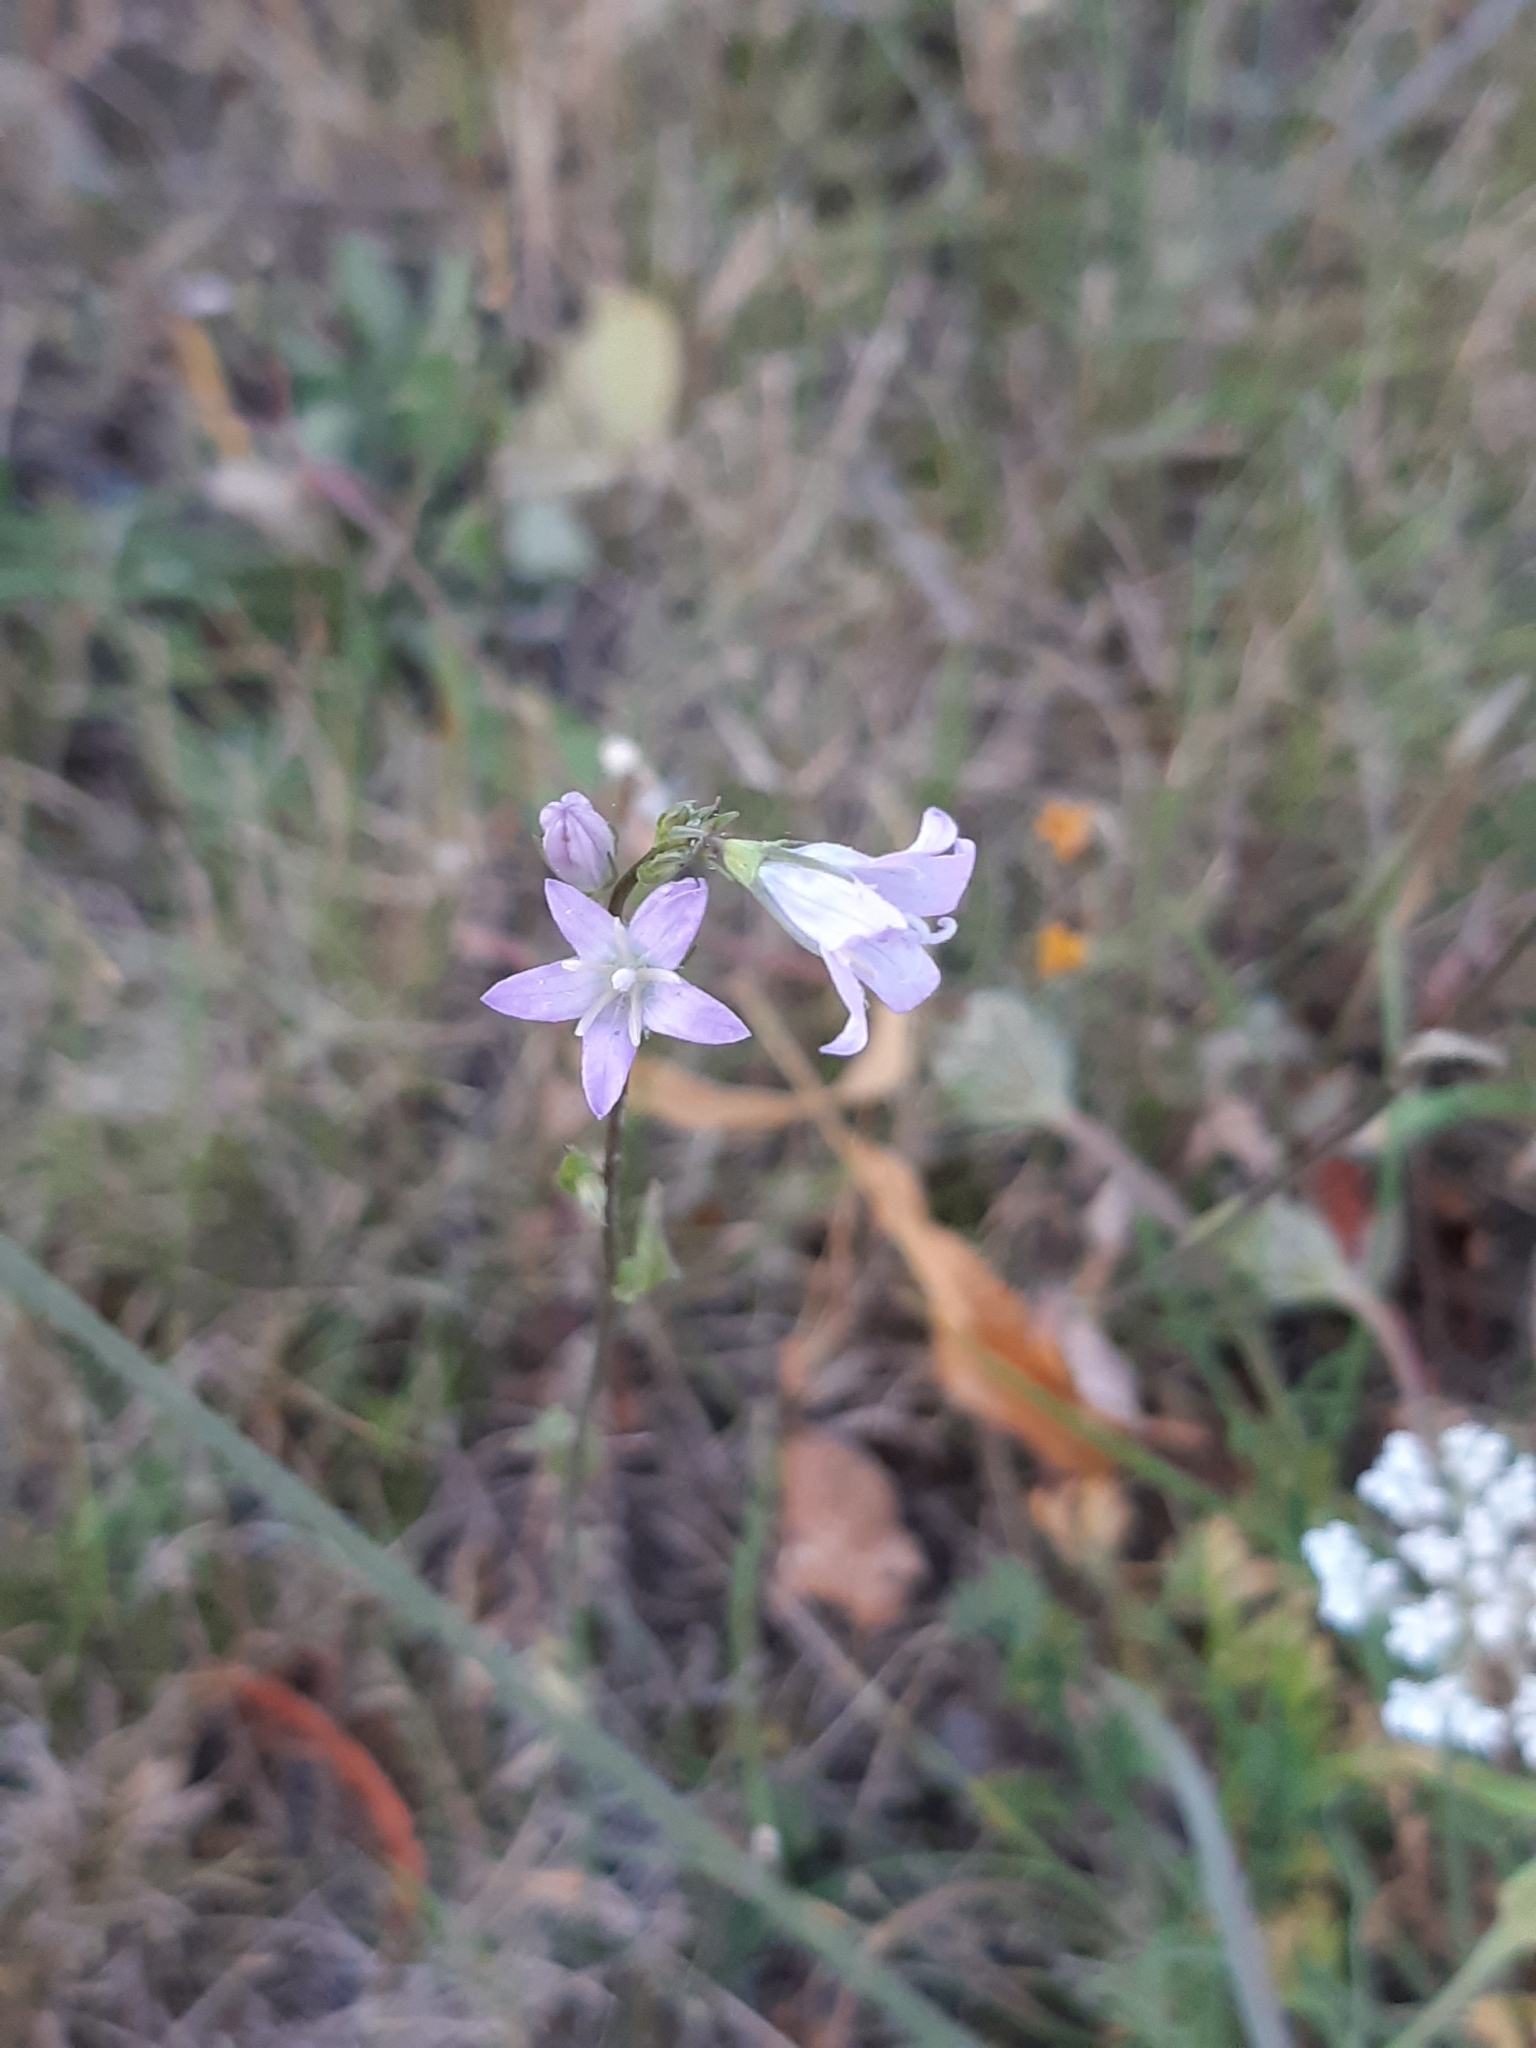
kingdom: Plantae
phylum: Tracheophyta
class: Magnoliopsida
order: Asterales
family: Campanulaceae
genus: Campanula
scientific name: Campanula rapunculus
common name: Rampion bellflower
